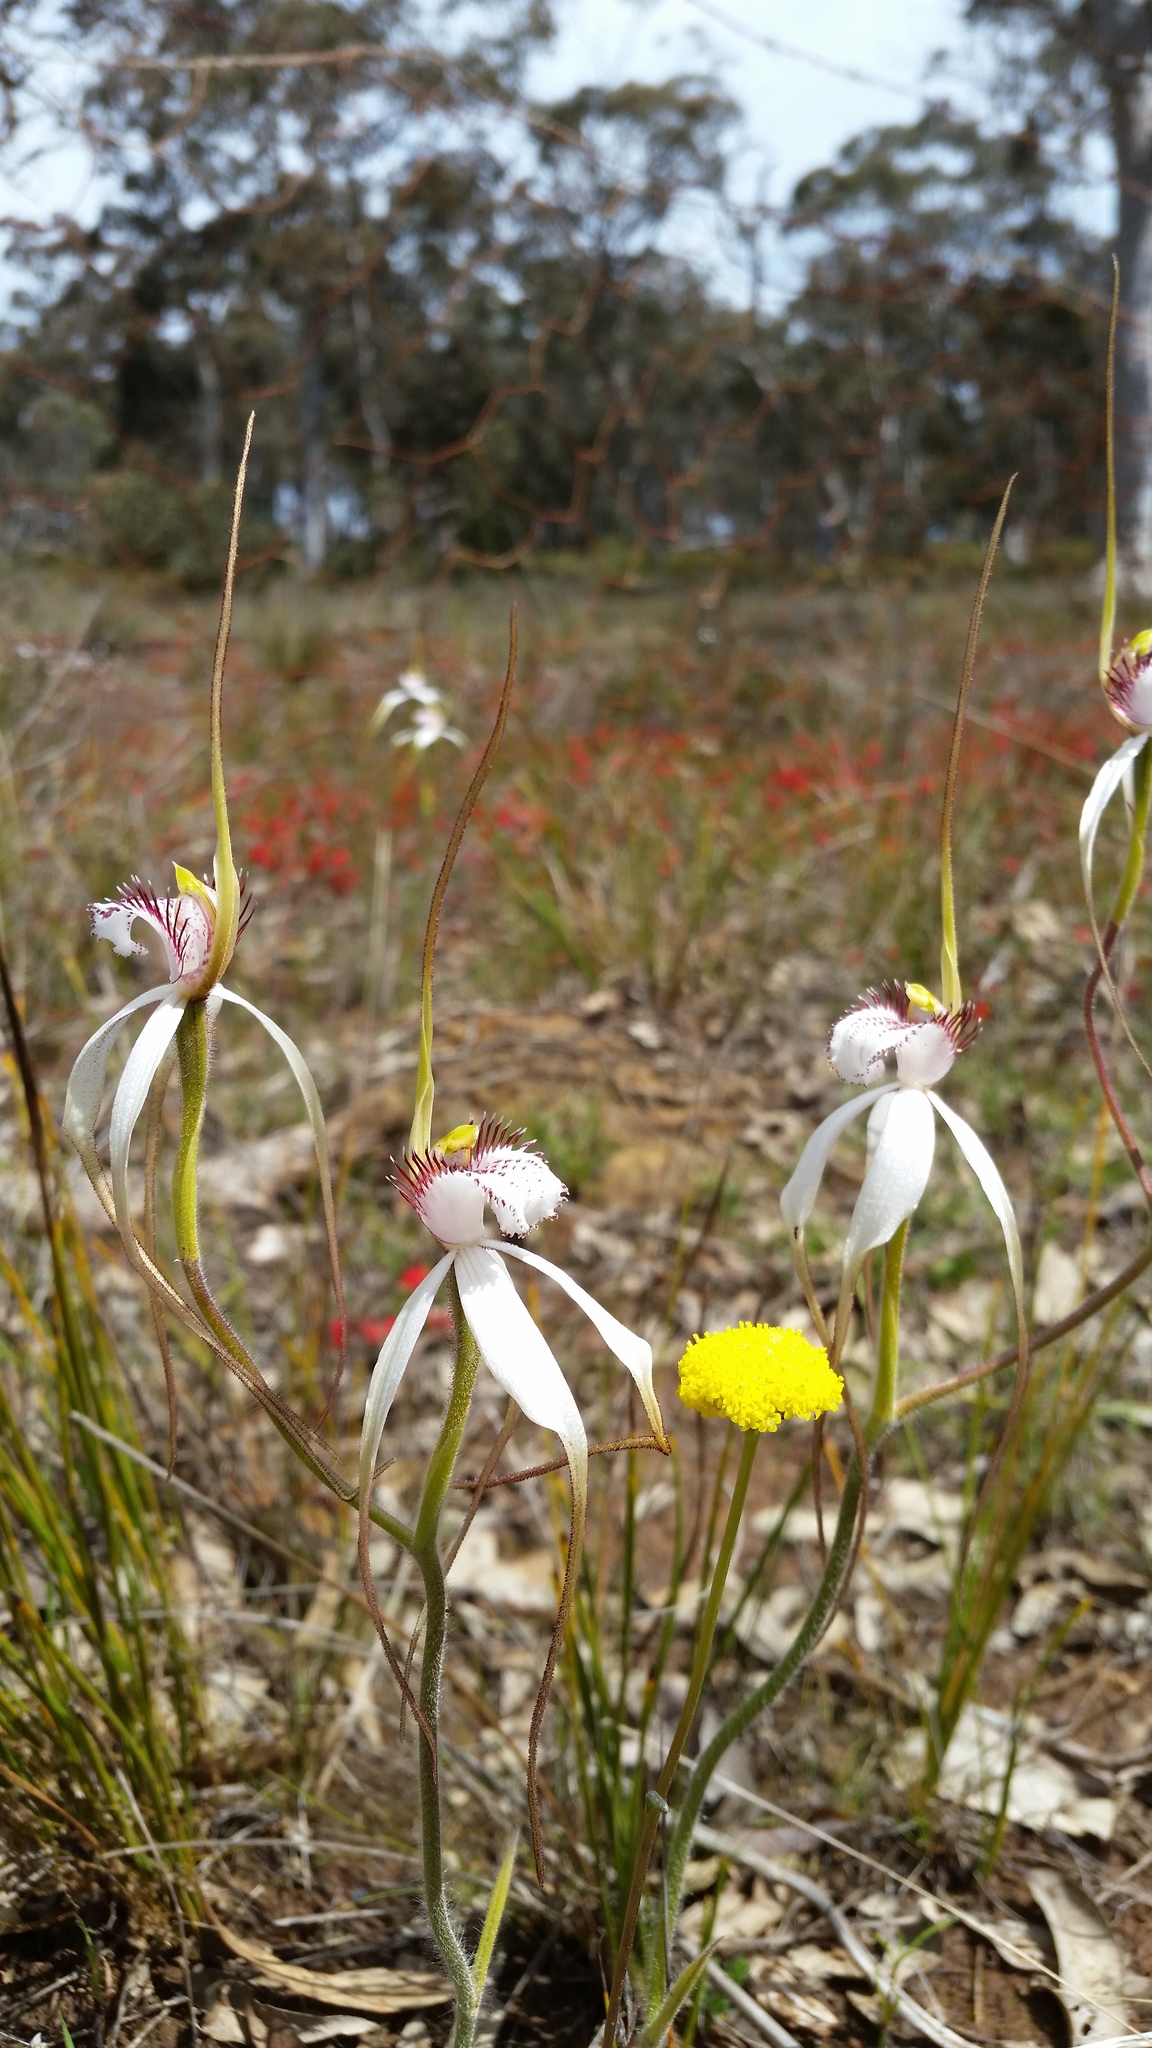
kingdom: Plantae
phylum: Tracheophyta
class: Liliopsida
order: Asparagales
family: Orchidaceae
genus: Caladenia
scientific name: Caladenia longicauda
